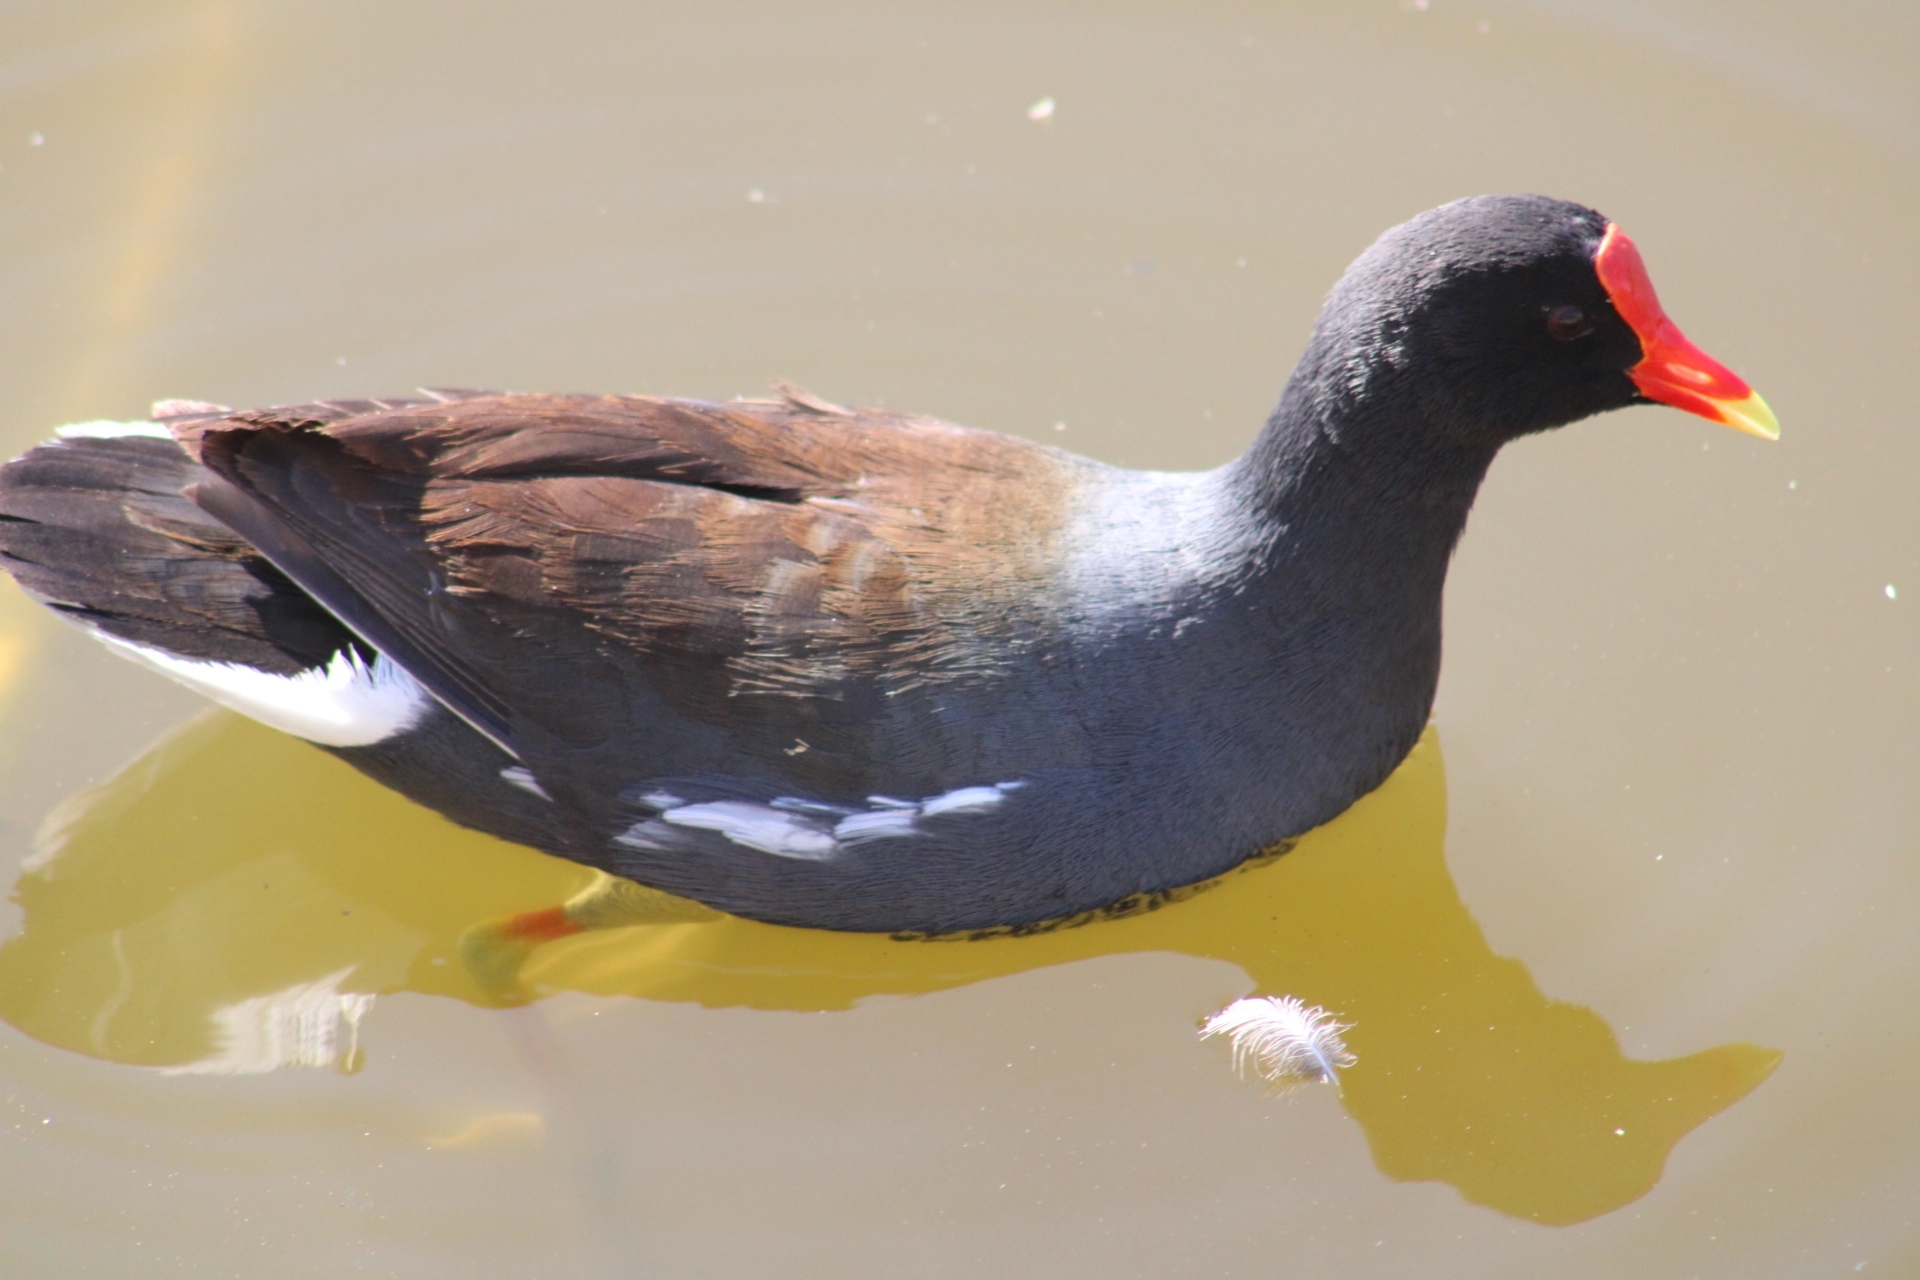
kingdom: Animalia
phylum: Chordata
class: Aves
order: Gruiformes
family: Rallidae
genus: Gallinula
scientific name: Gallinula chloropus
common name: Common moorhen
